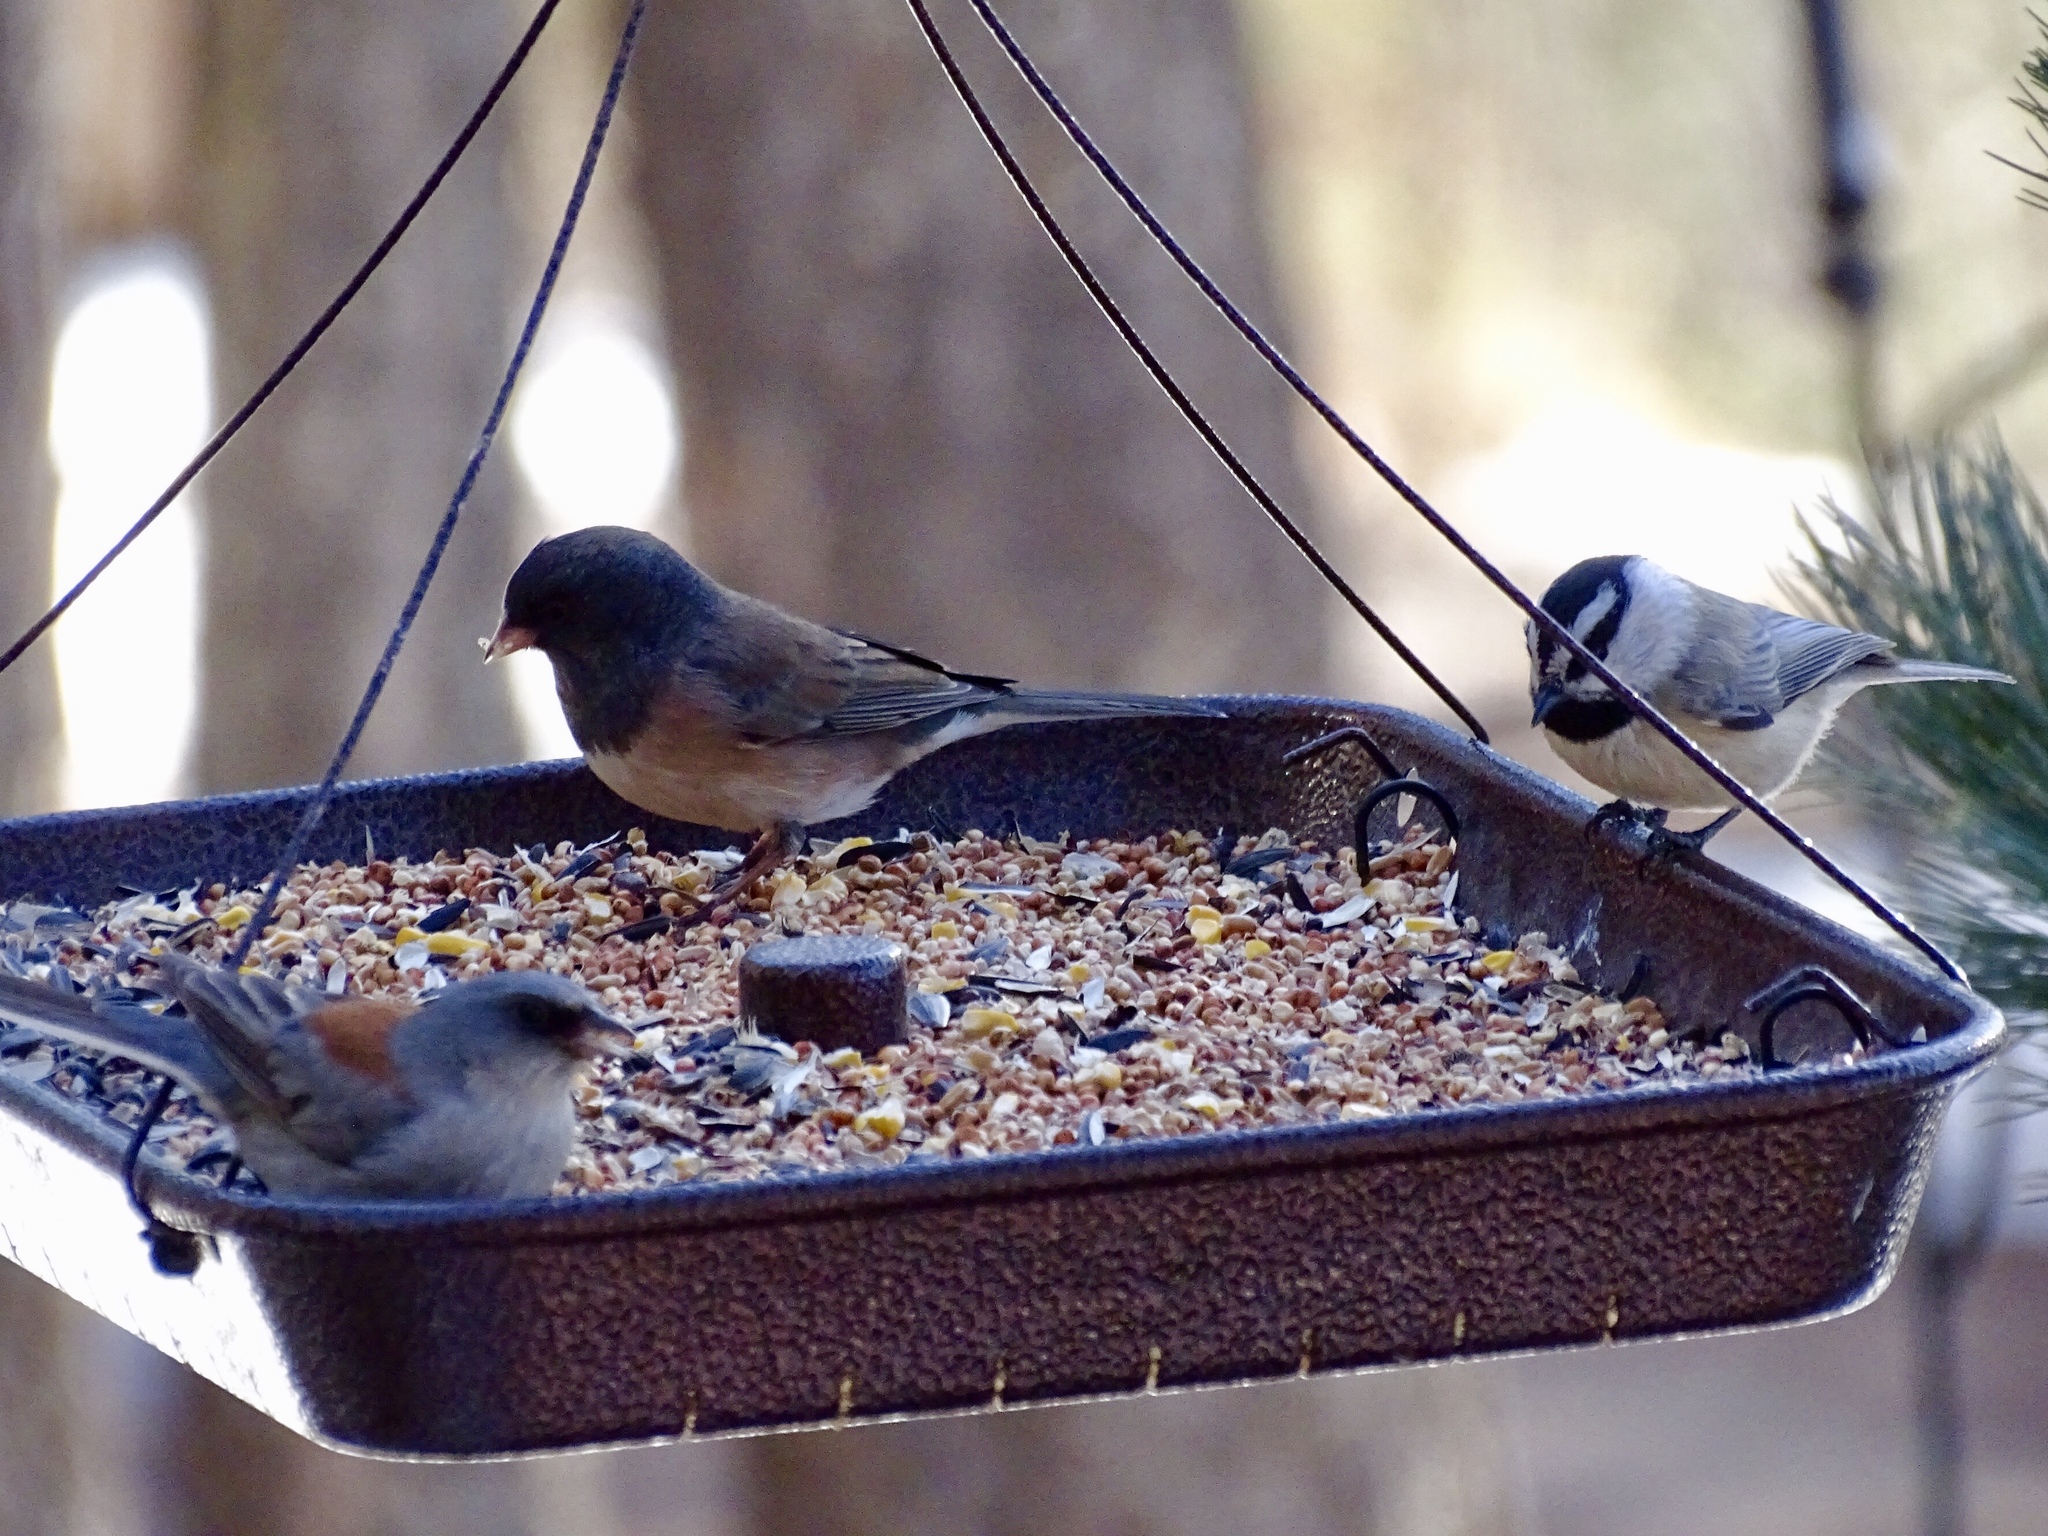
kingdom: Animalia
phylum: Chordata
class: Aves
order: Passeriformes
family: Paridae
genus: Poecile
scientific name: Poecile gambeli
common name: Mountain chickadee
